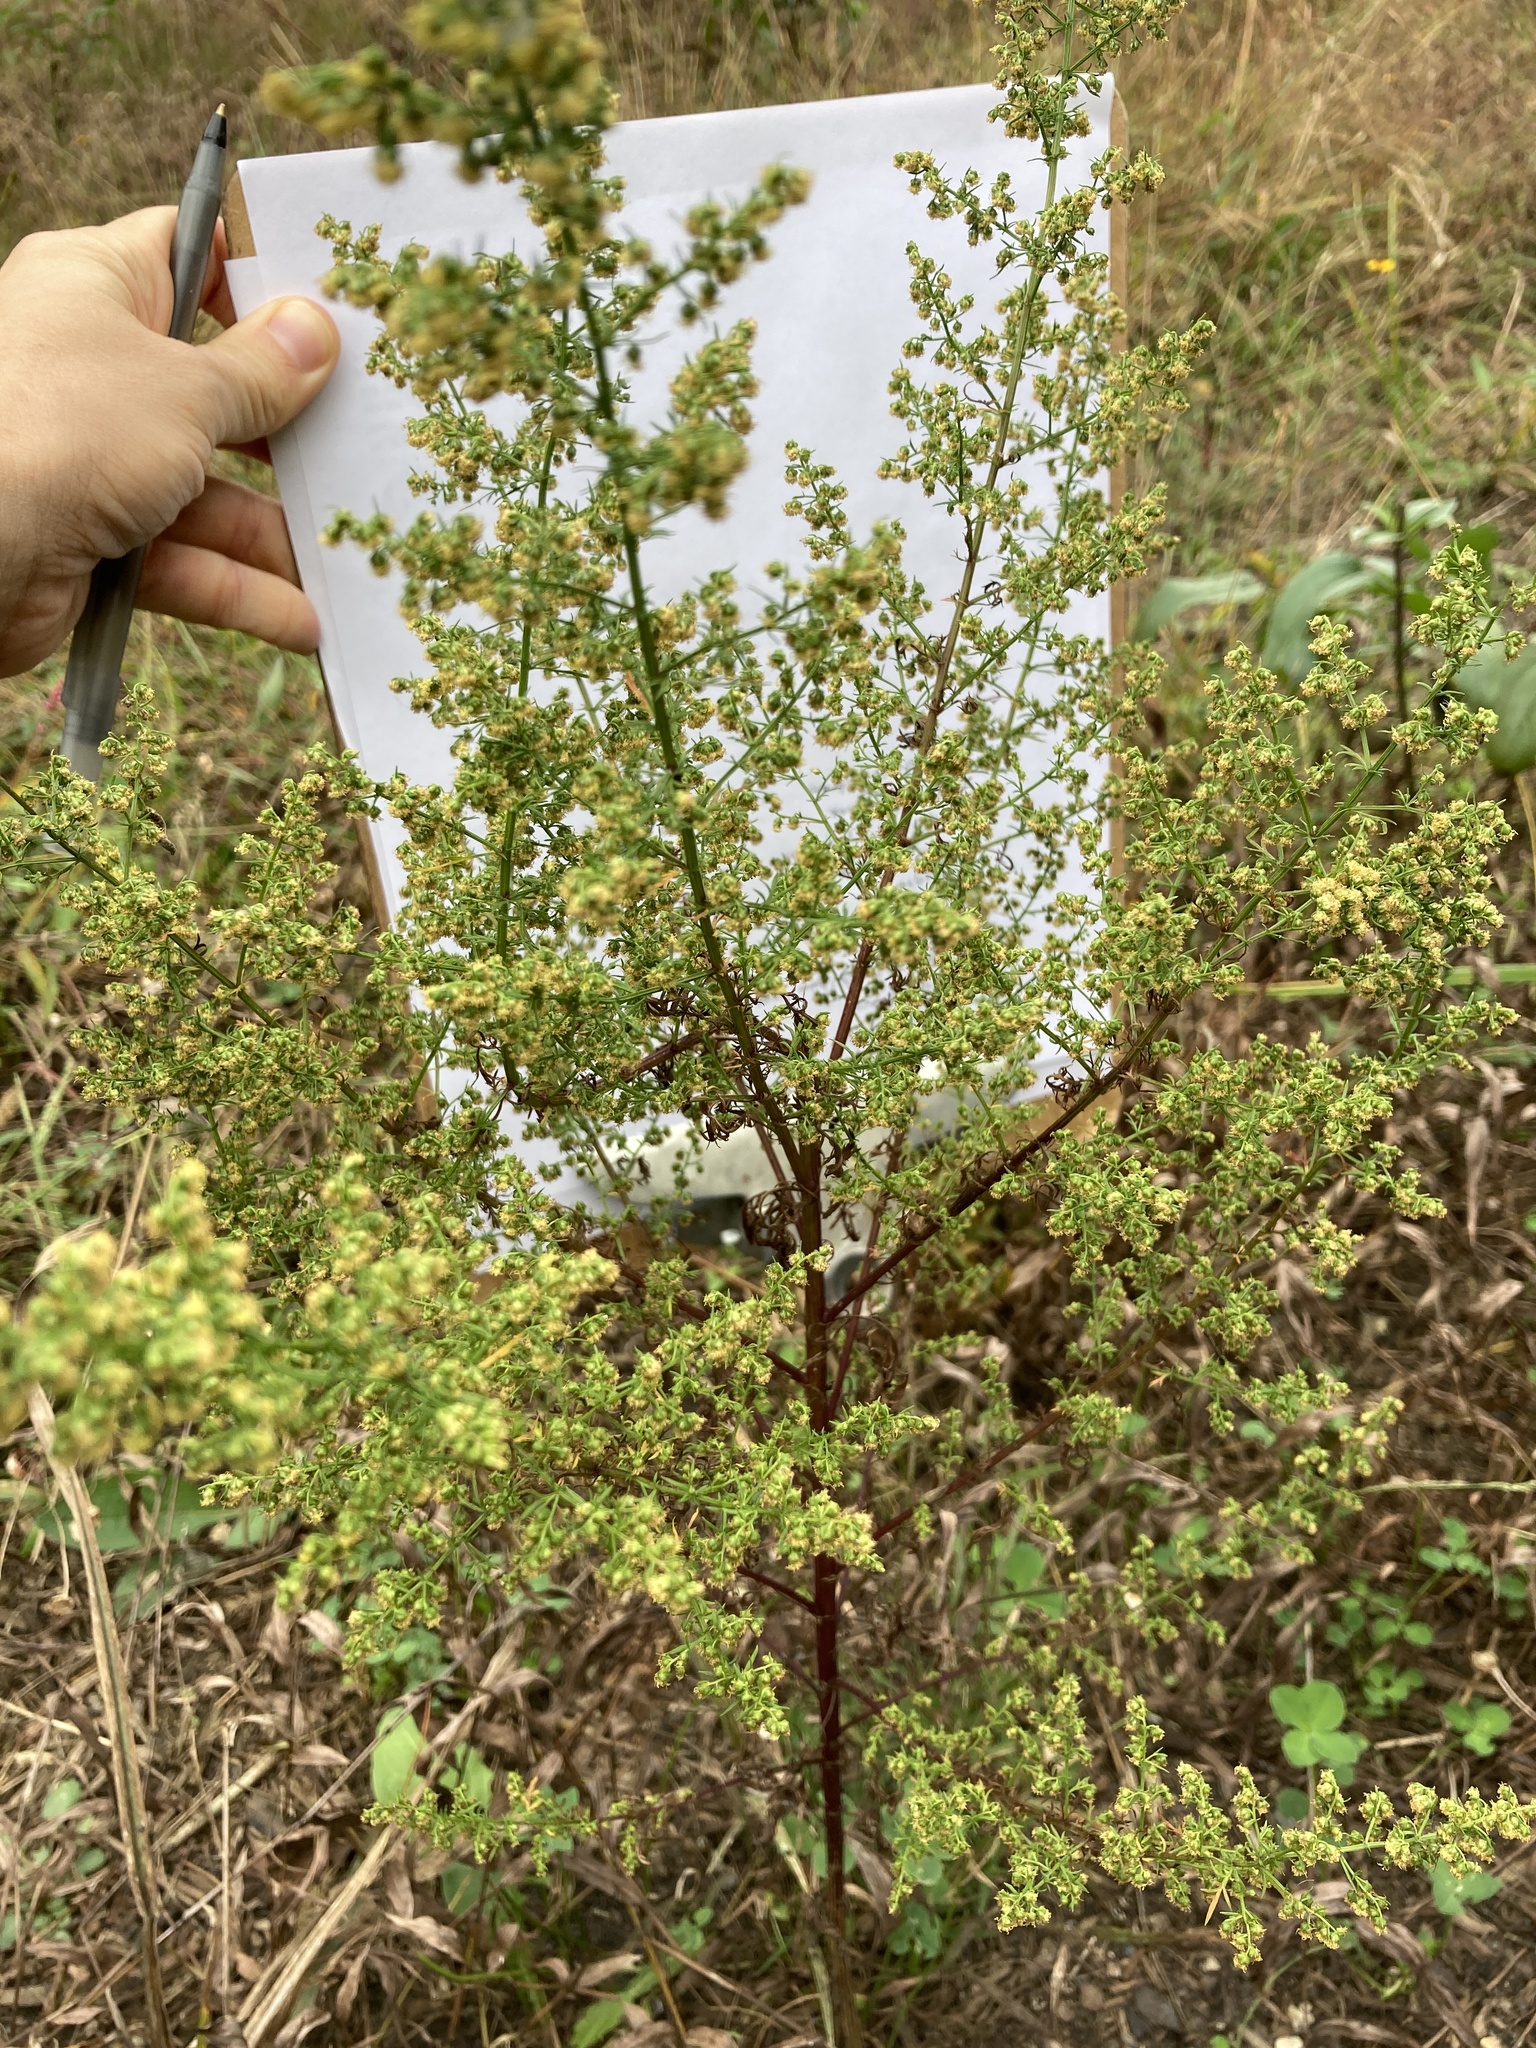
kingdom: Plantae
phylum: Tracheophyta
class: Magnoliopsida
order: Asterales
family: Asteraceae
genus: Artemisia
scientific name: Artemisia annua
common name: Sweet sagewort
